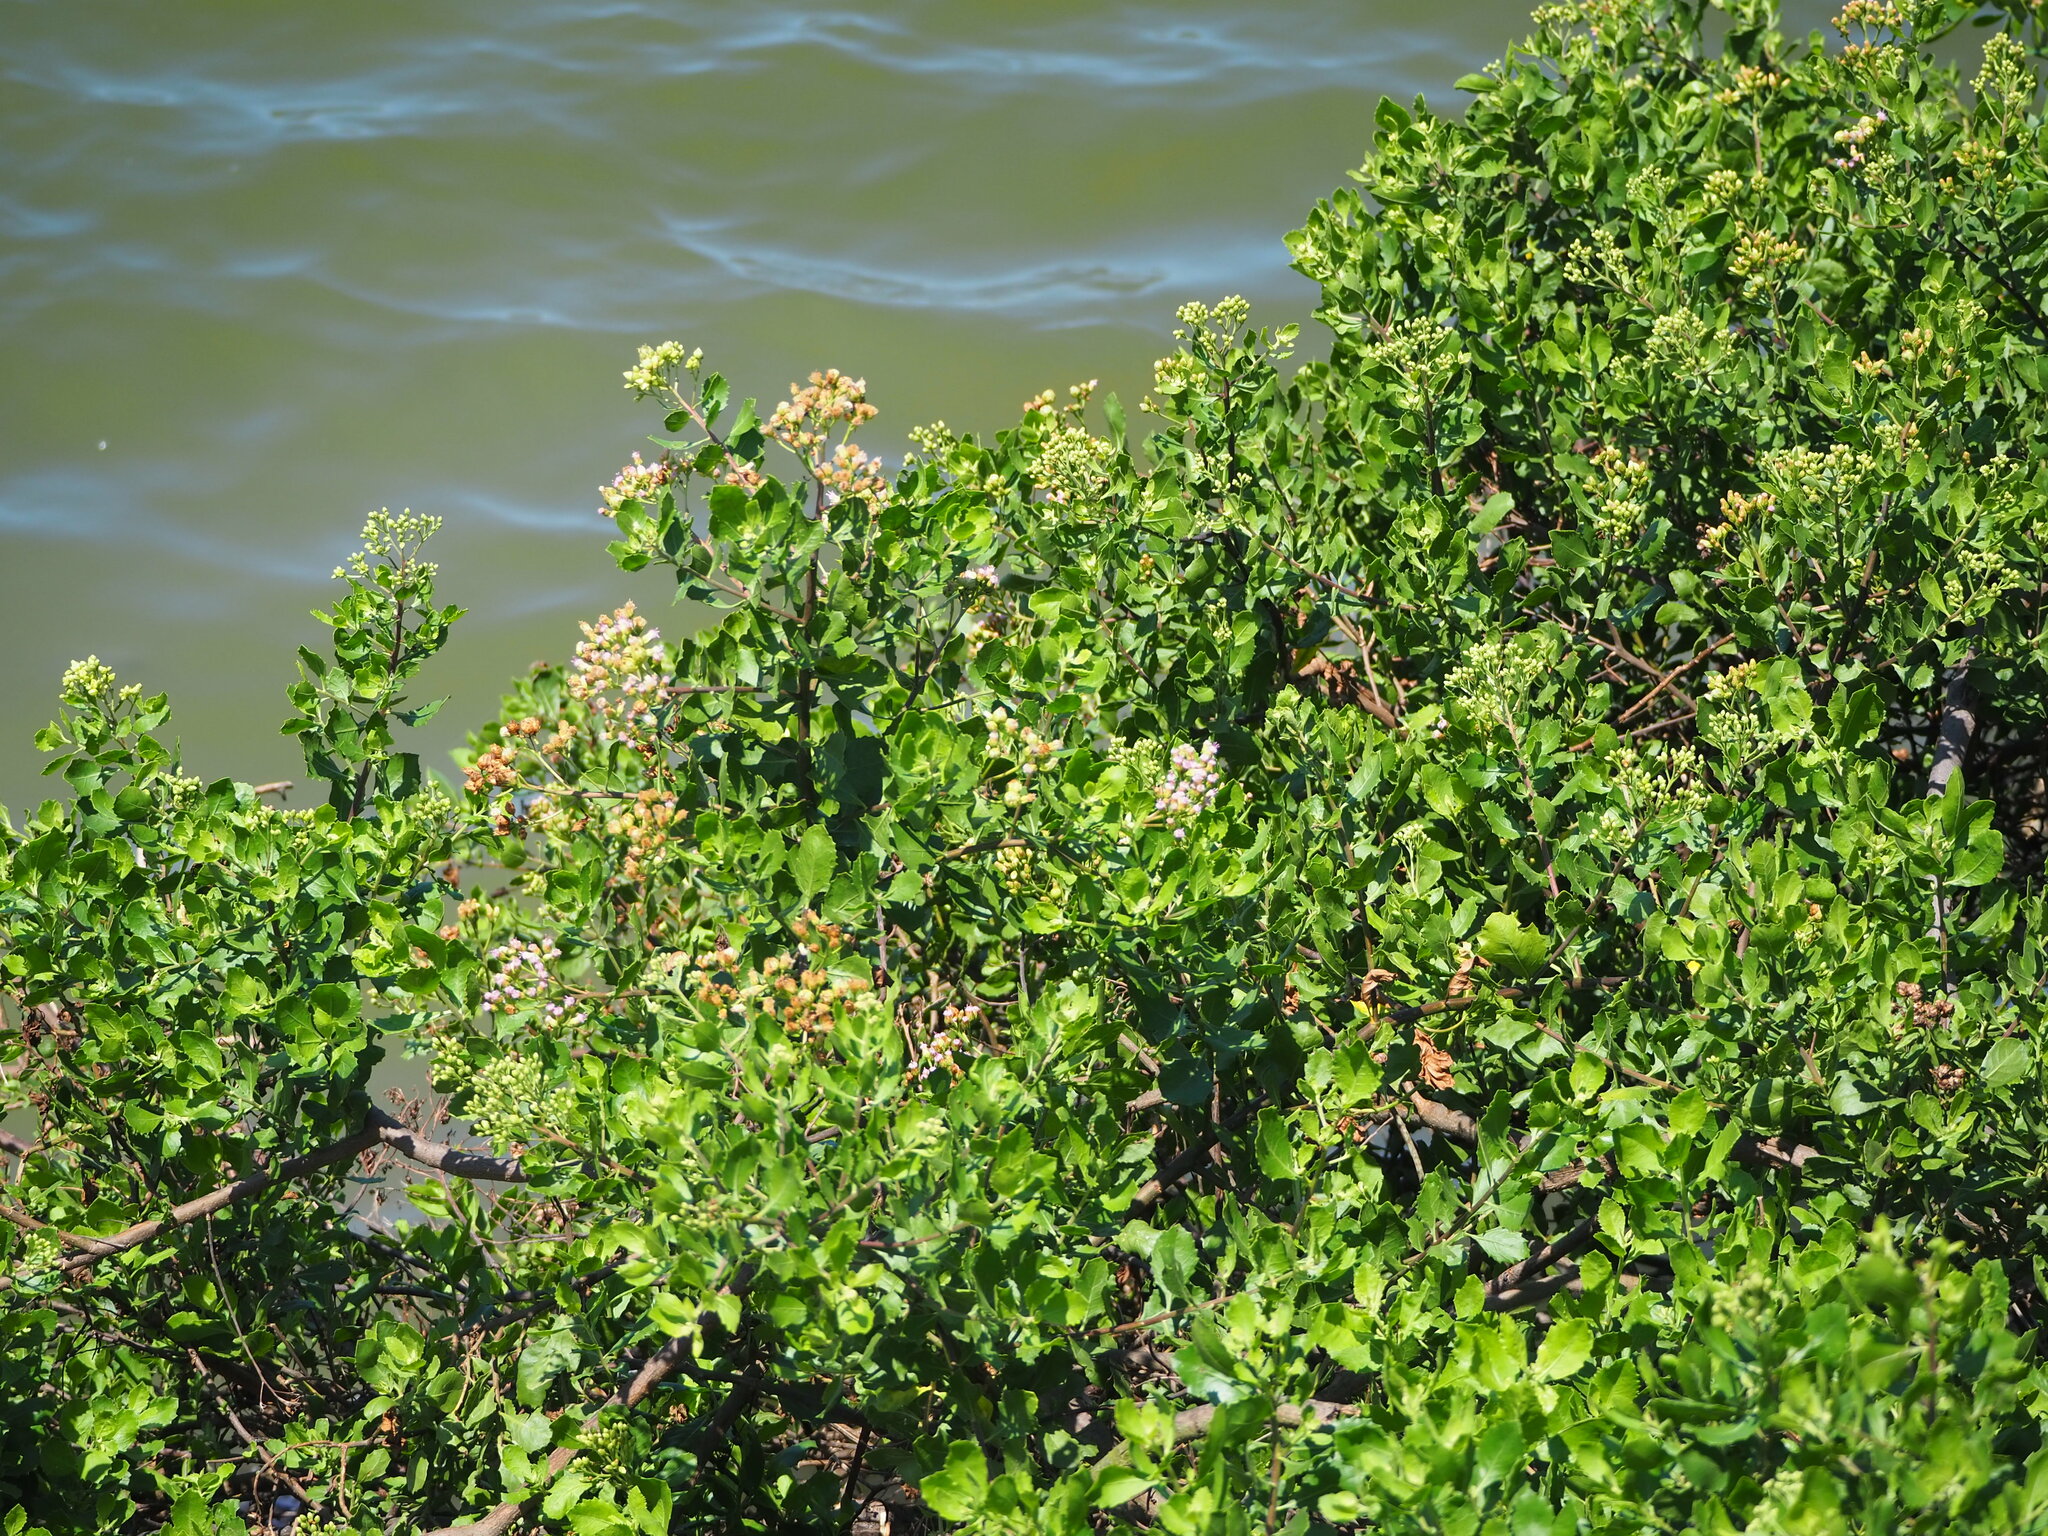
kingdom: Plantae
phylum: Tracheophyta
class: Magnoliopsida
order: Asterales
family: Asteraceae
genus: Pluchea
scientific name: Pluchea indica
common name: Indian fleabane
